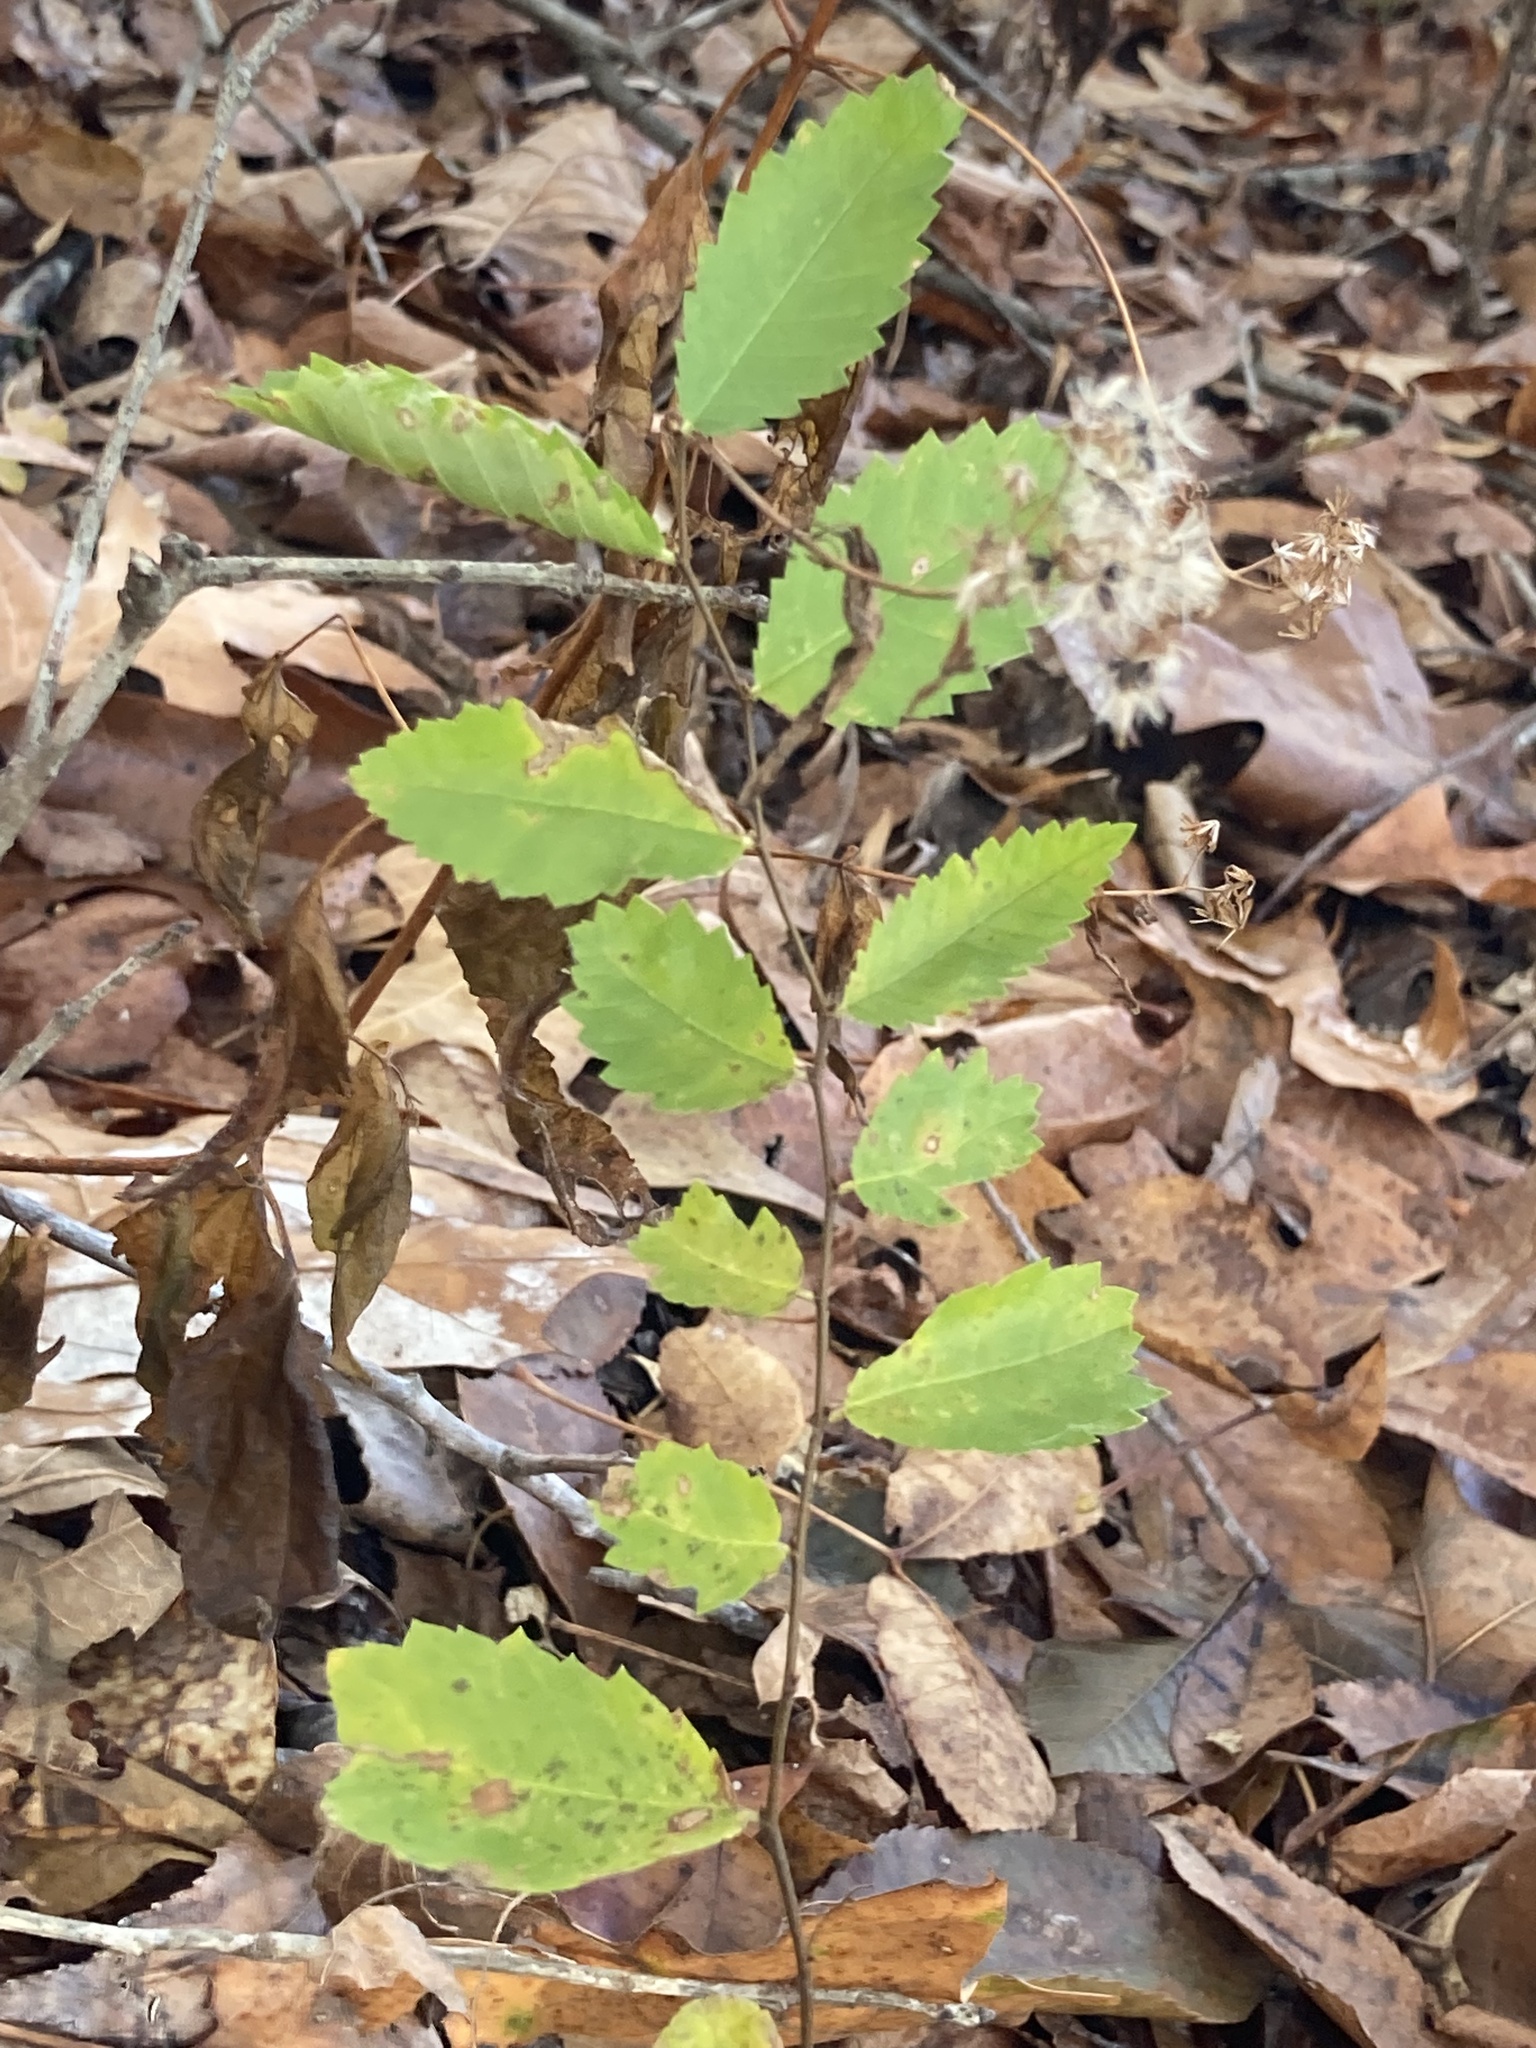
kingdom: Plantae
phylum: Tracheophyta
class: Magnoliopsida
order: Rosales
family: Ulmaceae
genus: Ulmus
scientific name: Ulmus alata
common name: Winged elm
